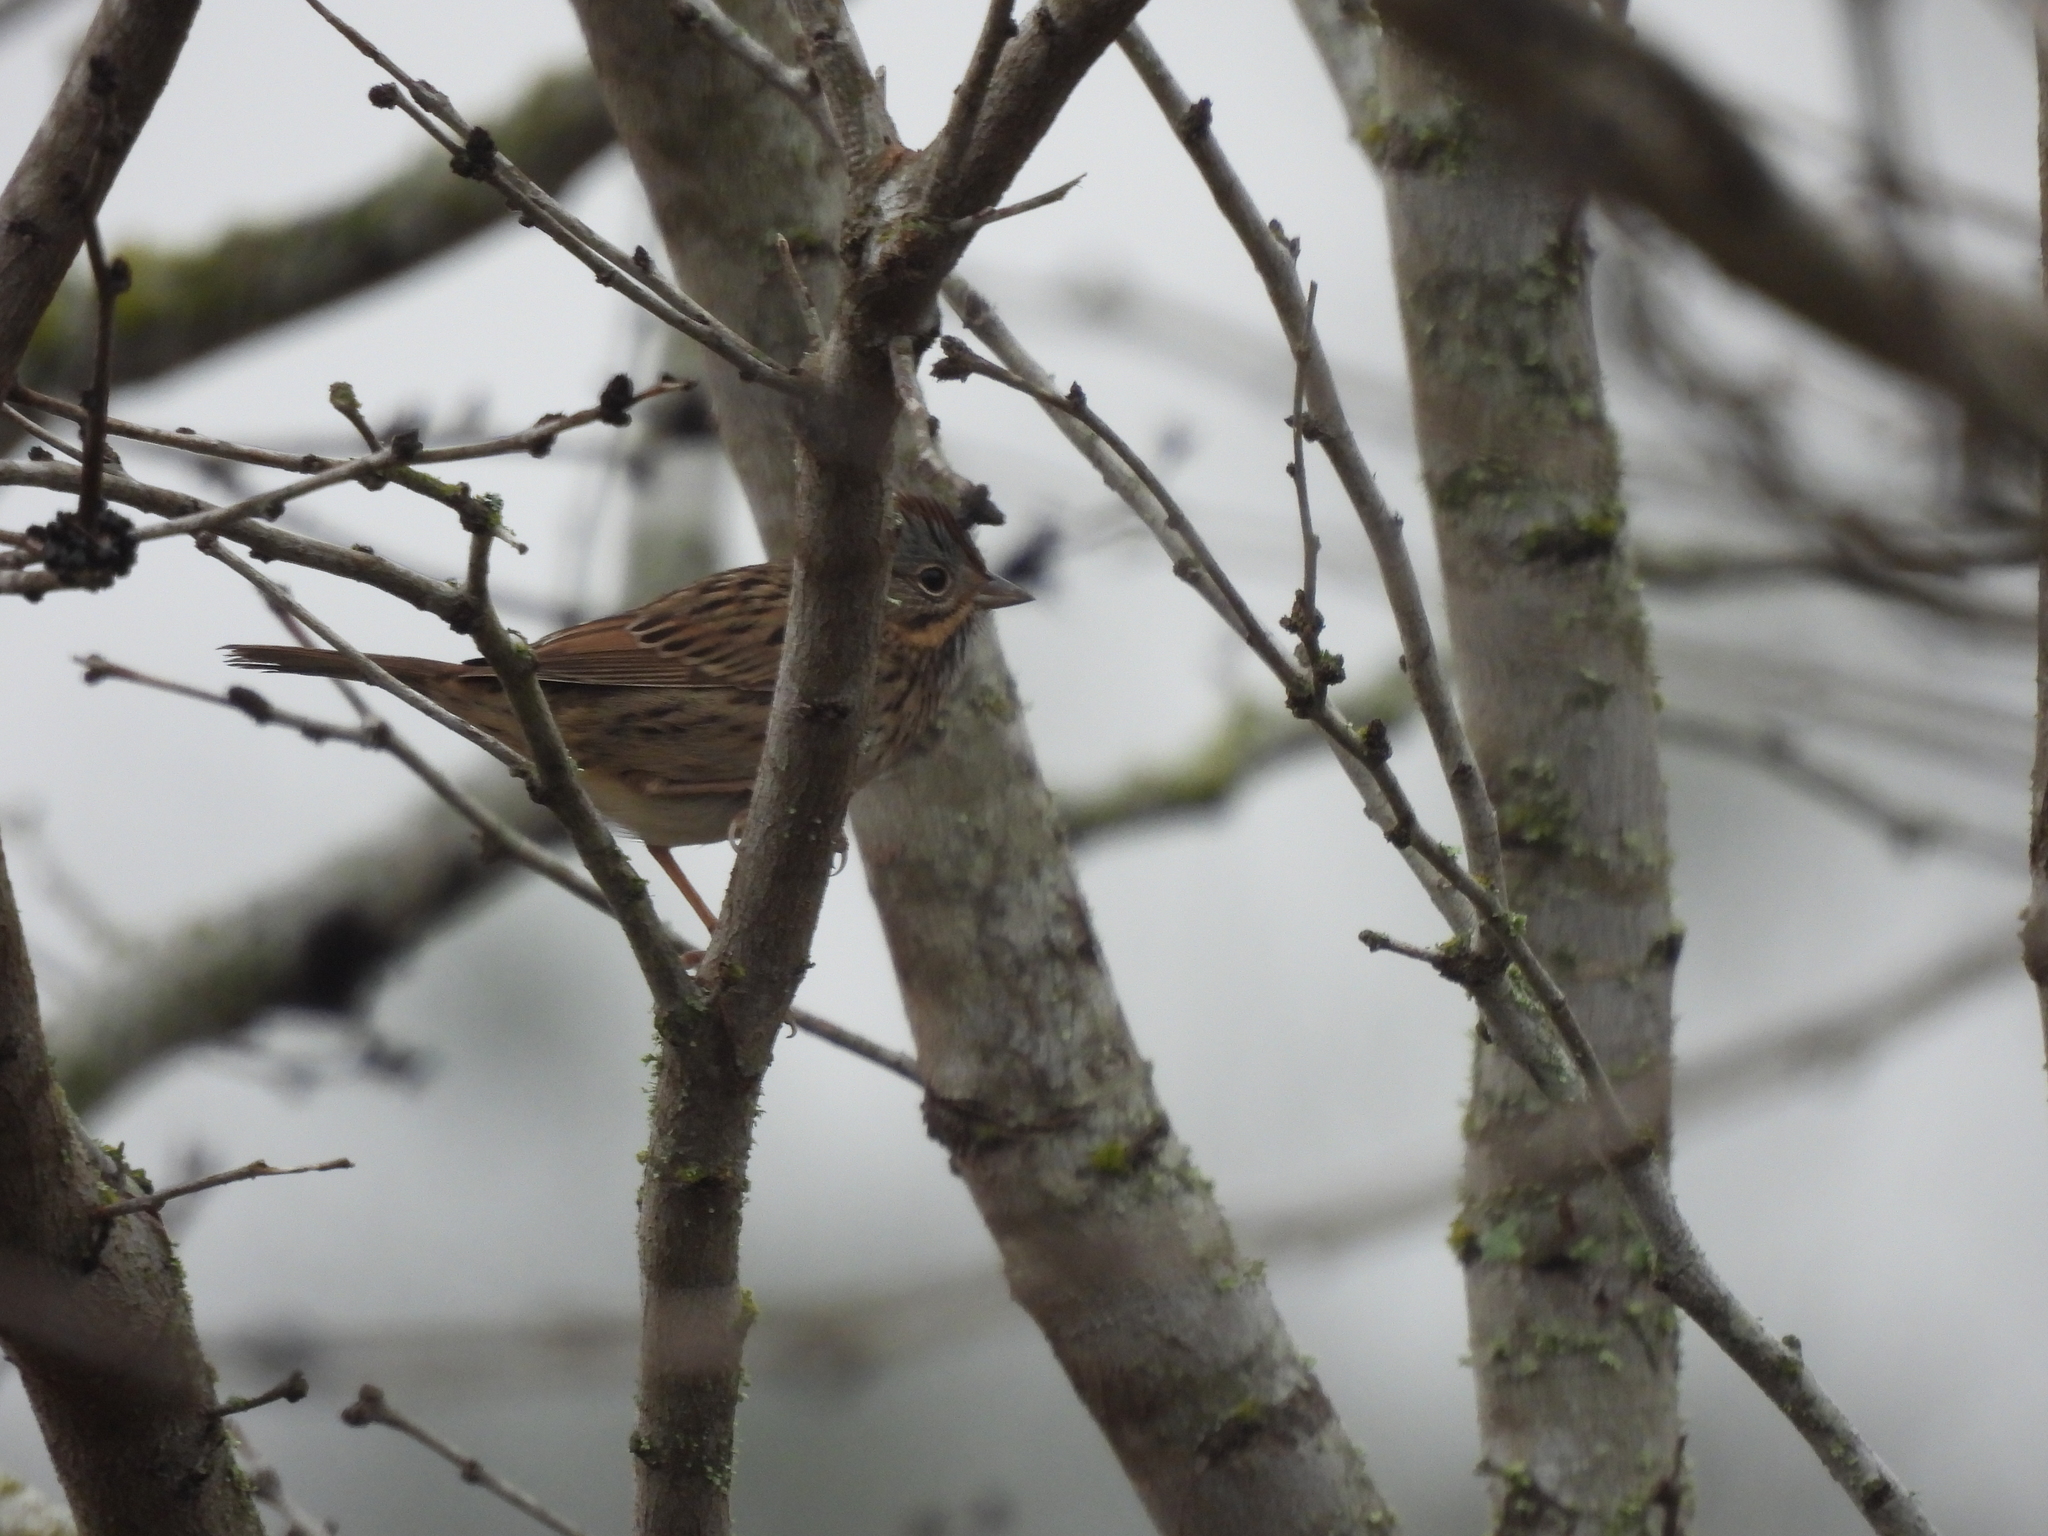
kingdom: Animalia
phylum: Chordata
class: Aves
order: Passeriformes
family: Passerellidae
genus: Melospiza
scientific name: Melospiza lincolnii
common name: Lincoln's sparrow
